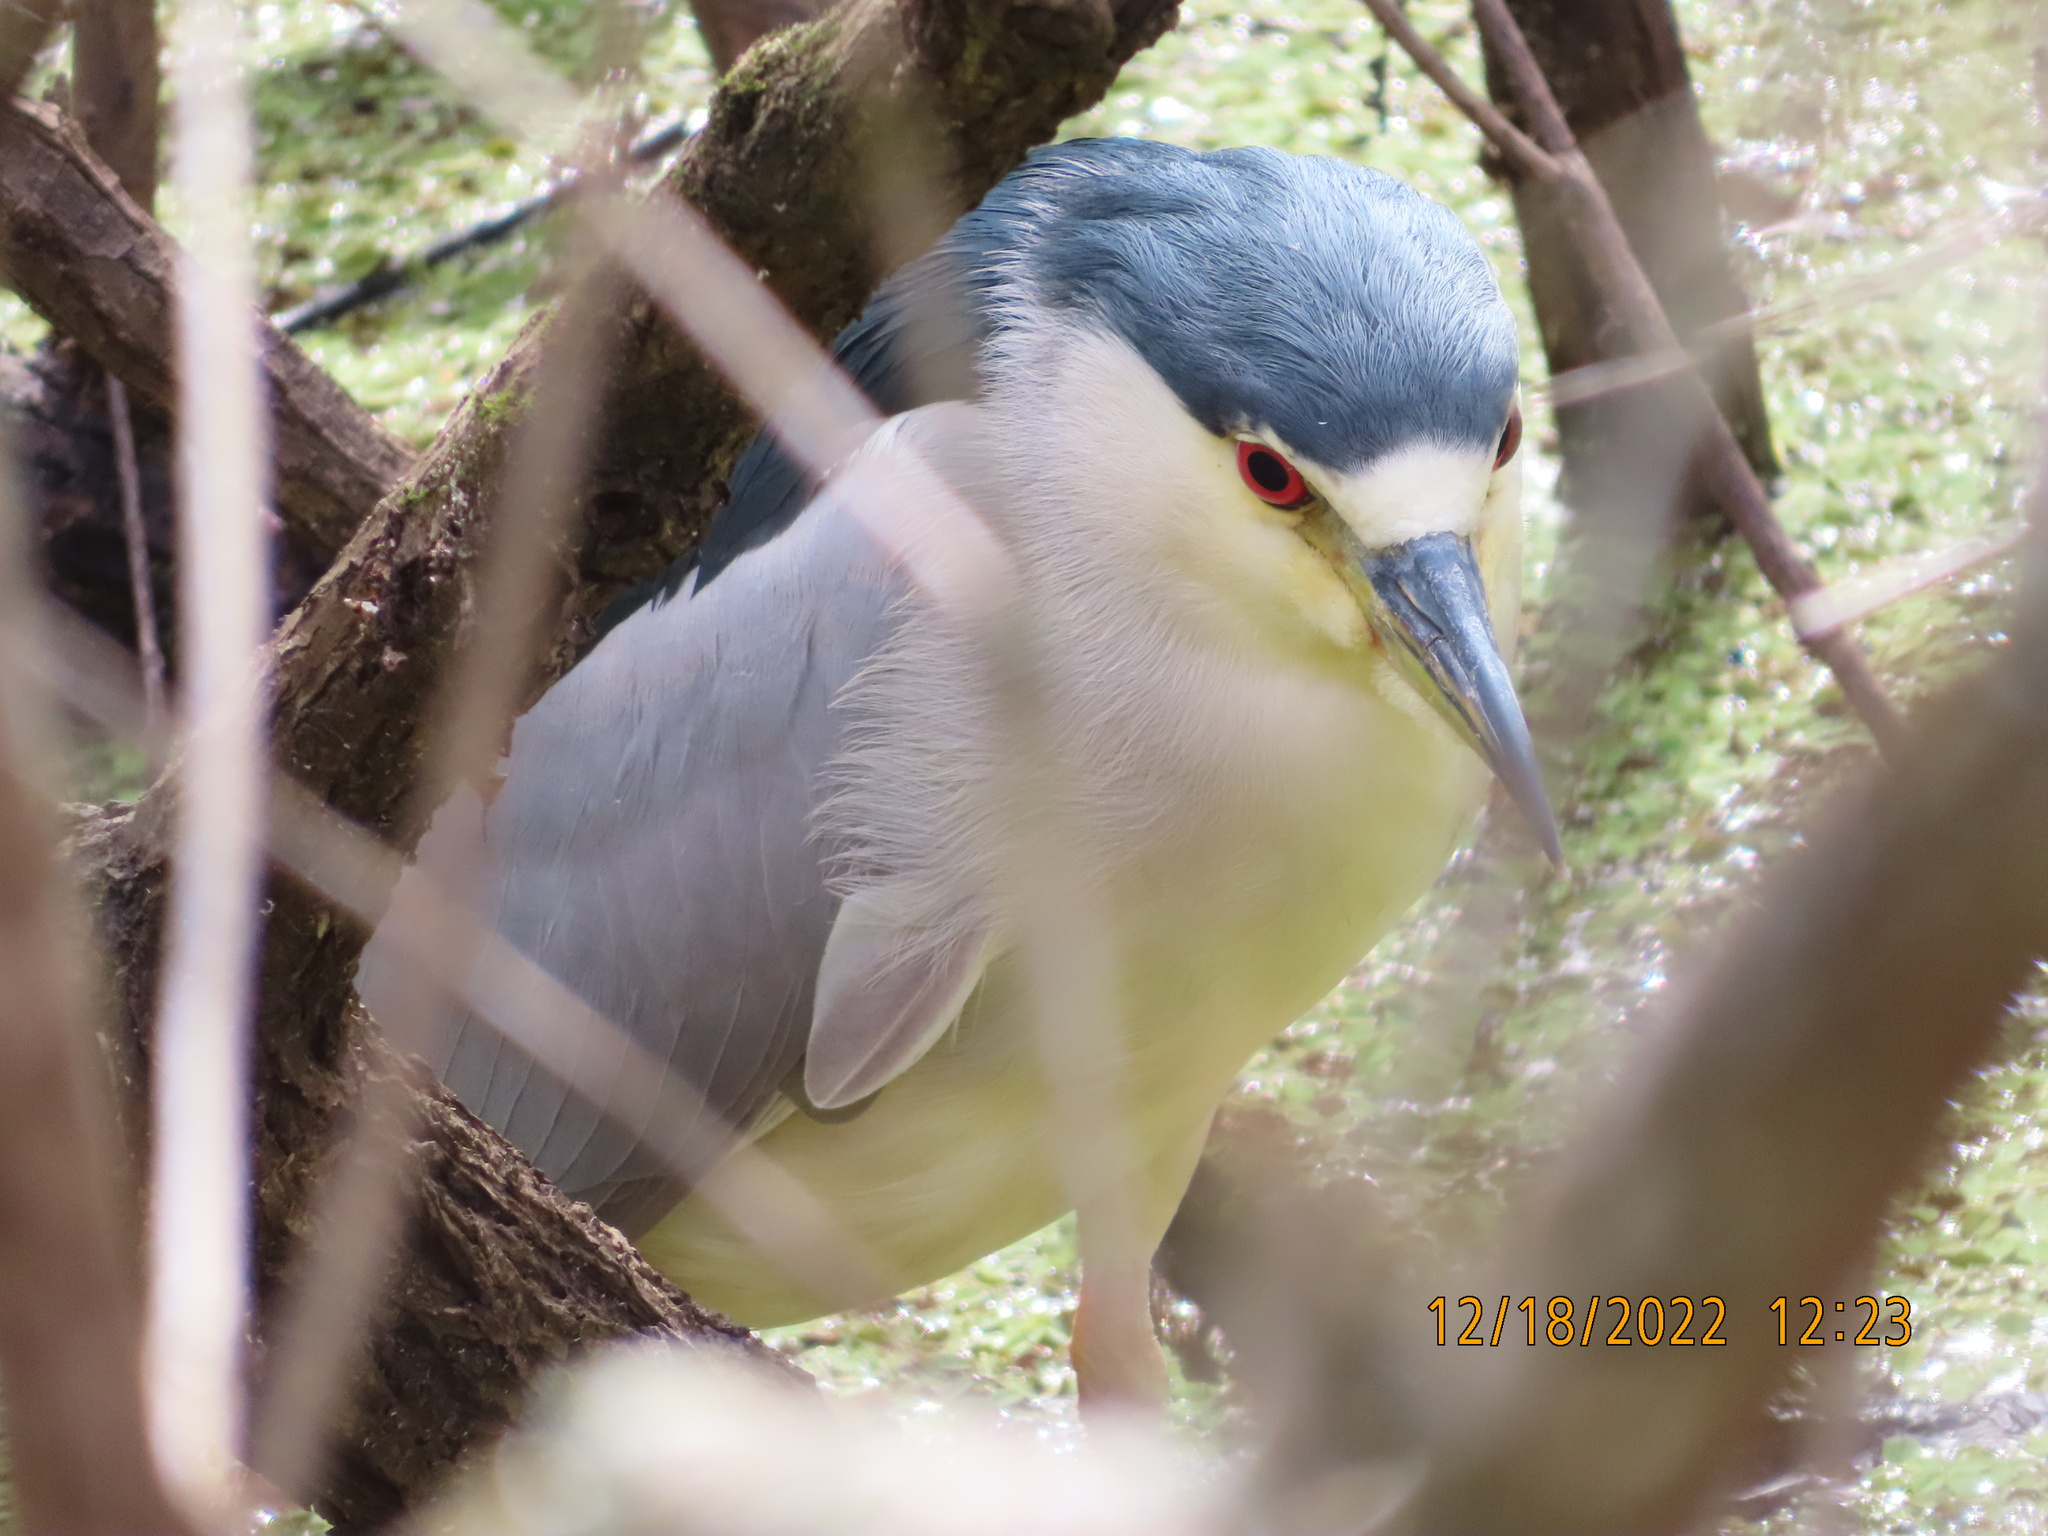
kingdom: Animalia
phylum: Chordata
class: Aves
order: Pelecaniformes
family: Ardeidae
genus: Nycticorax
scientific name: Nycticorax nycticorax
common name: Black-crowned night heron
